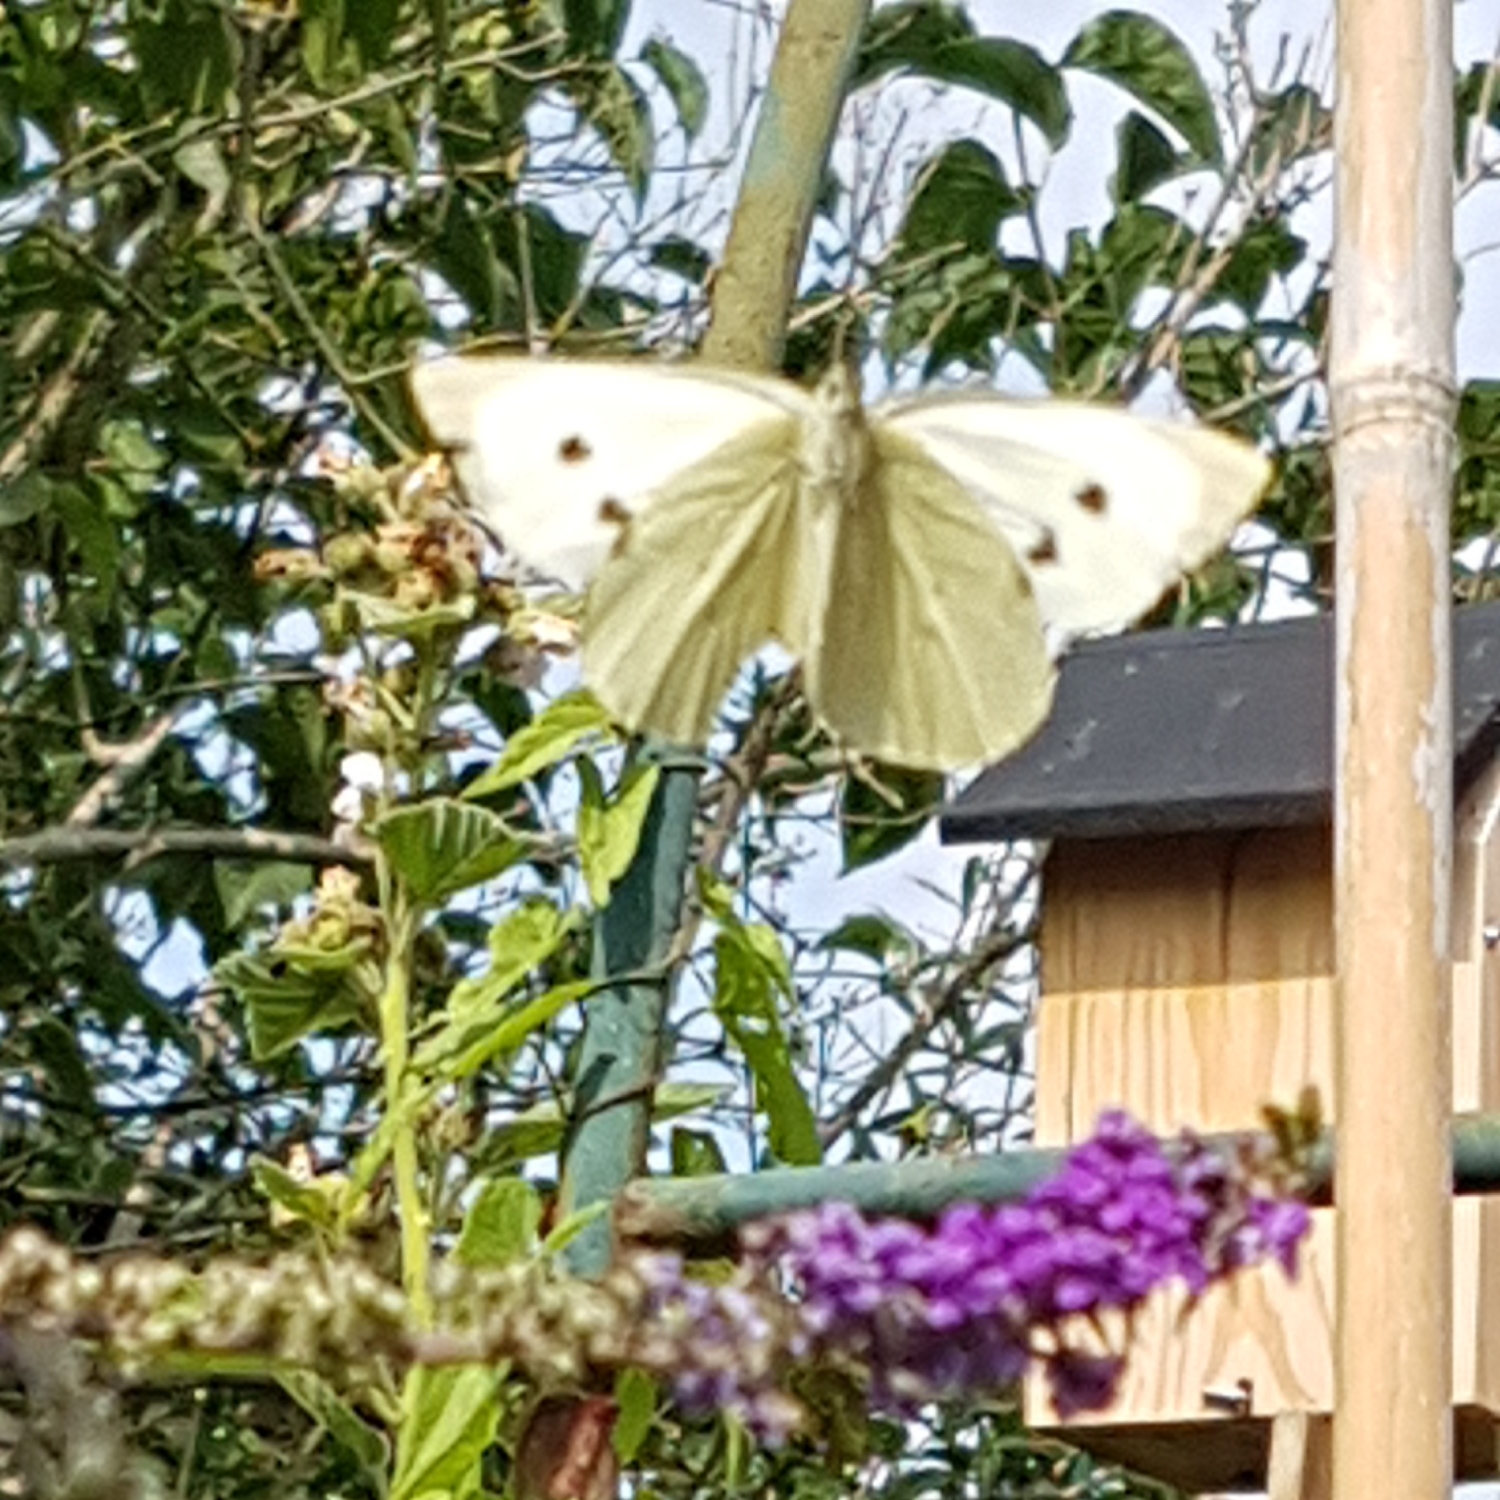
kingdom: Animalia
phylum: Arthropoda
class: Insecta
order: Lepidoptera
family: Pieridae
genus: Pieris
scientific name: Pieris brassicae
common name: Large white
